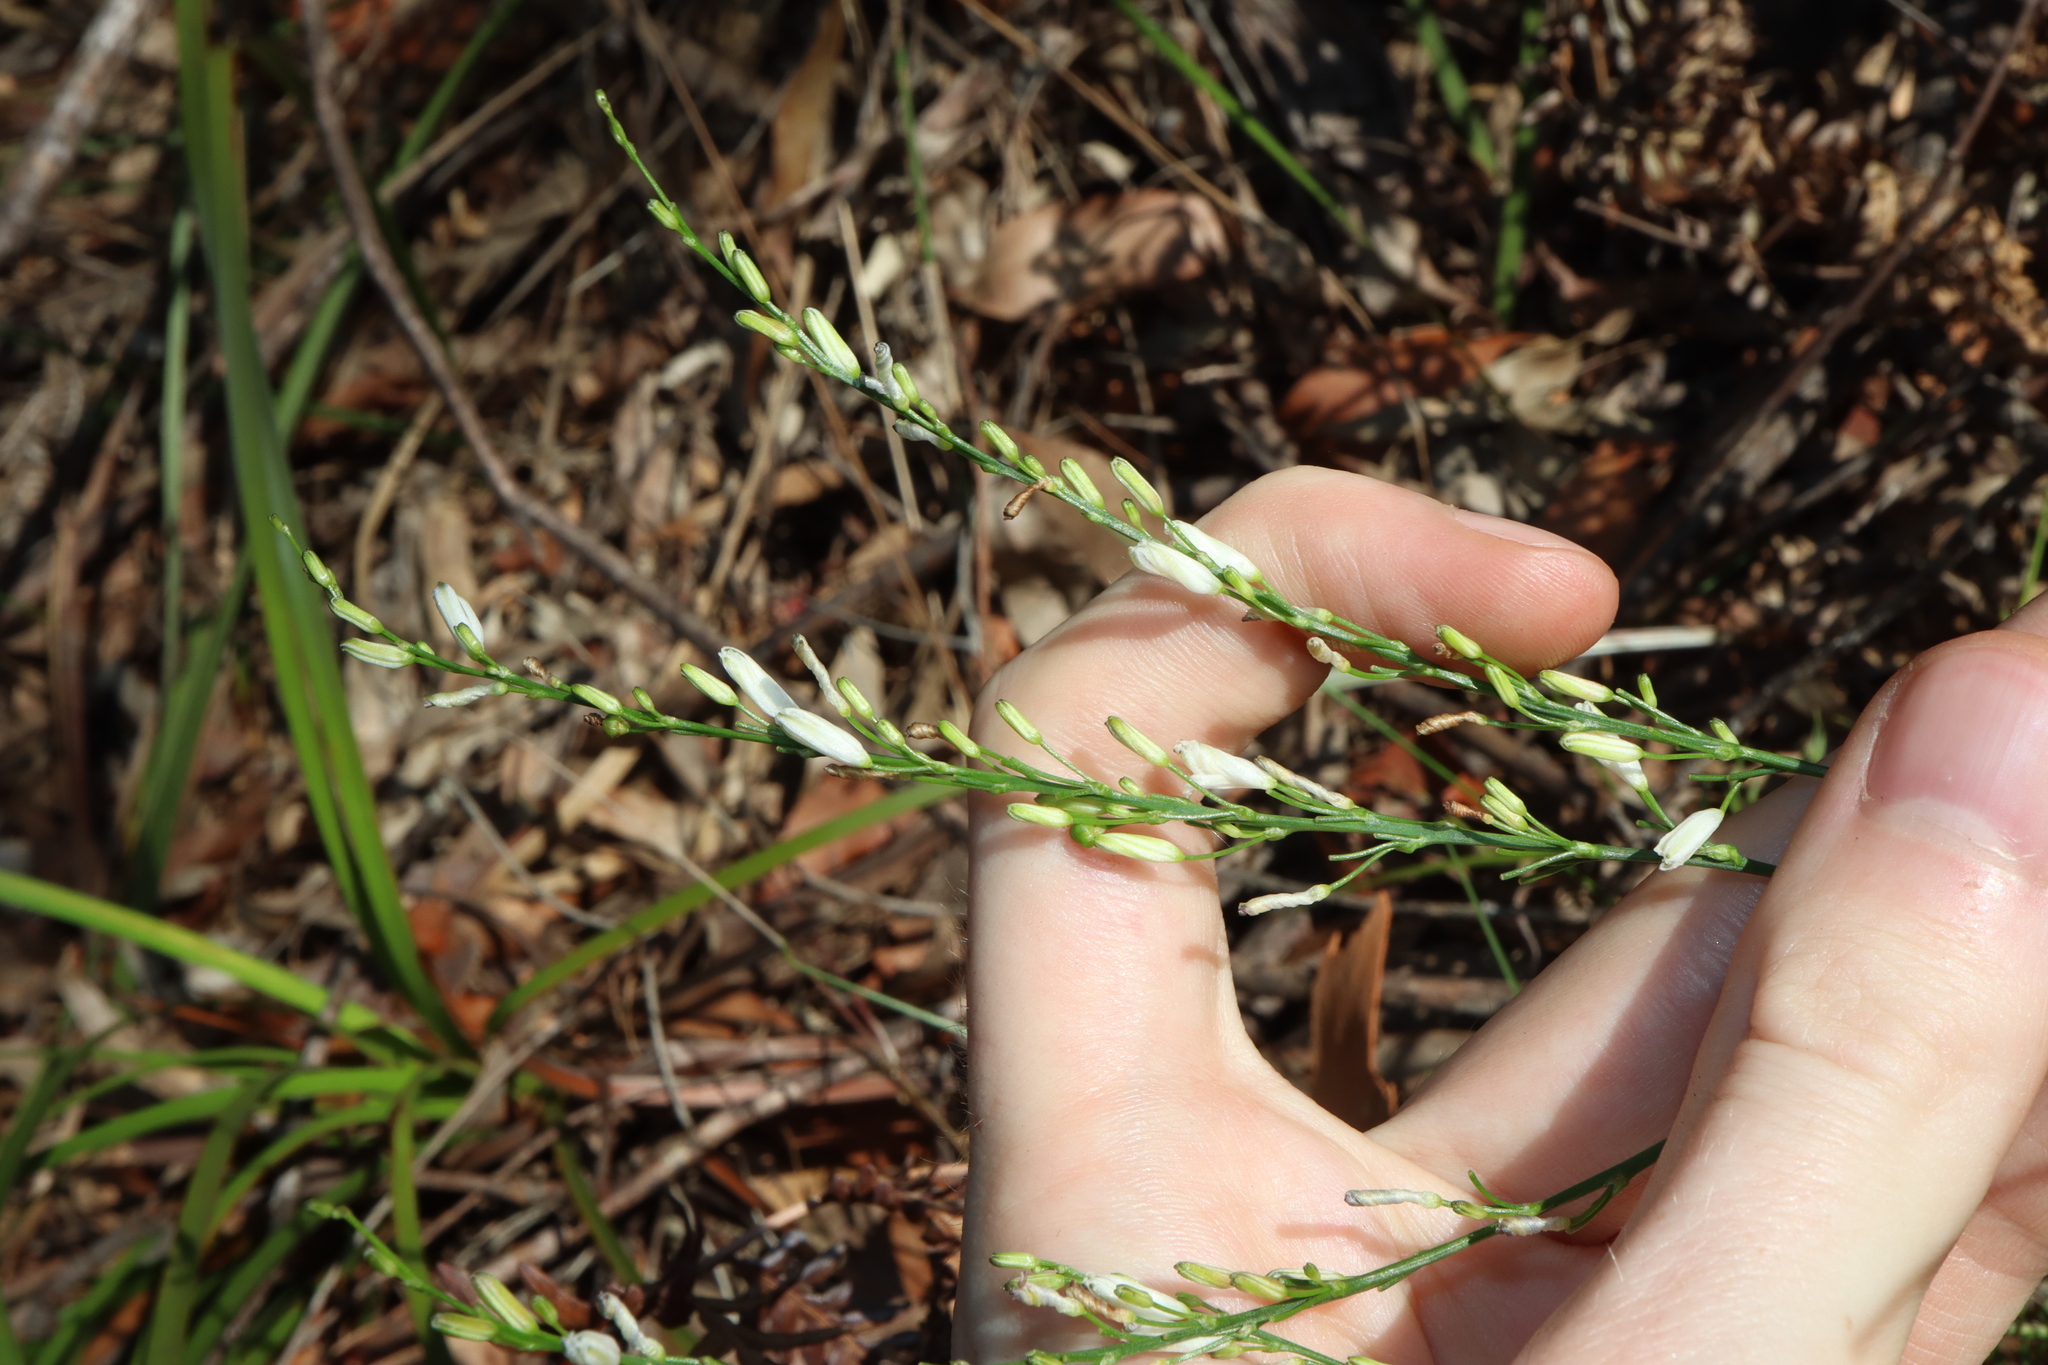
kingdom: Plantae
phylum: Tracheophyta
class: Liliopsida
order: Asparagales
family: Asphodelaceae
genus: Caesia
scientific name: Caesia parviflora
